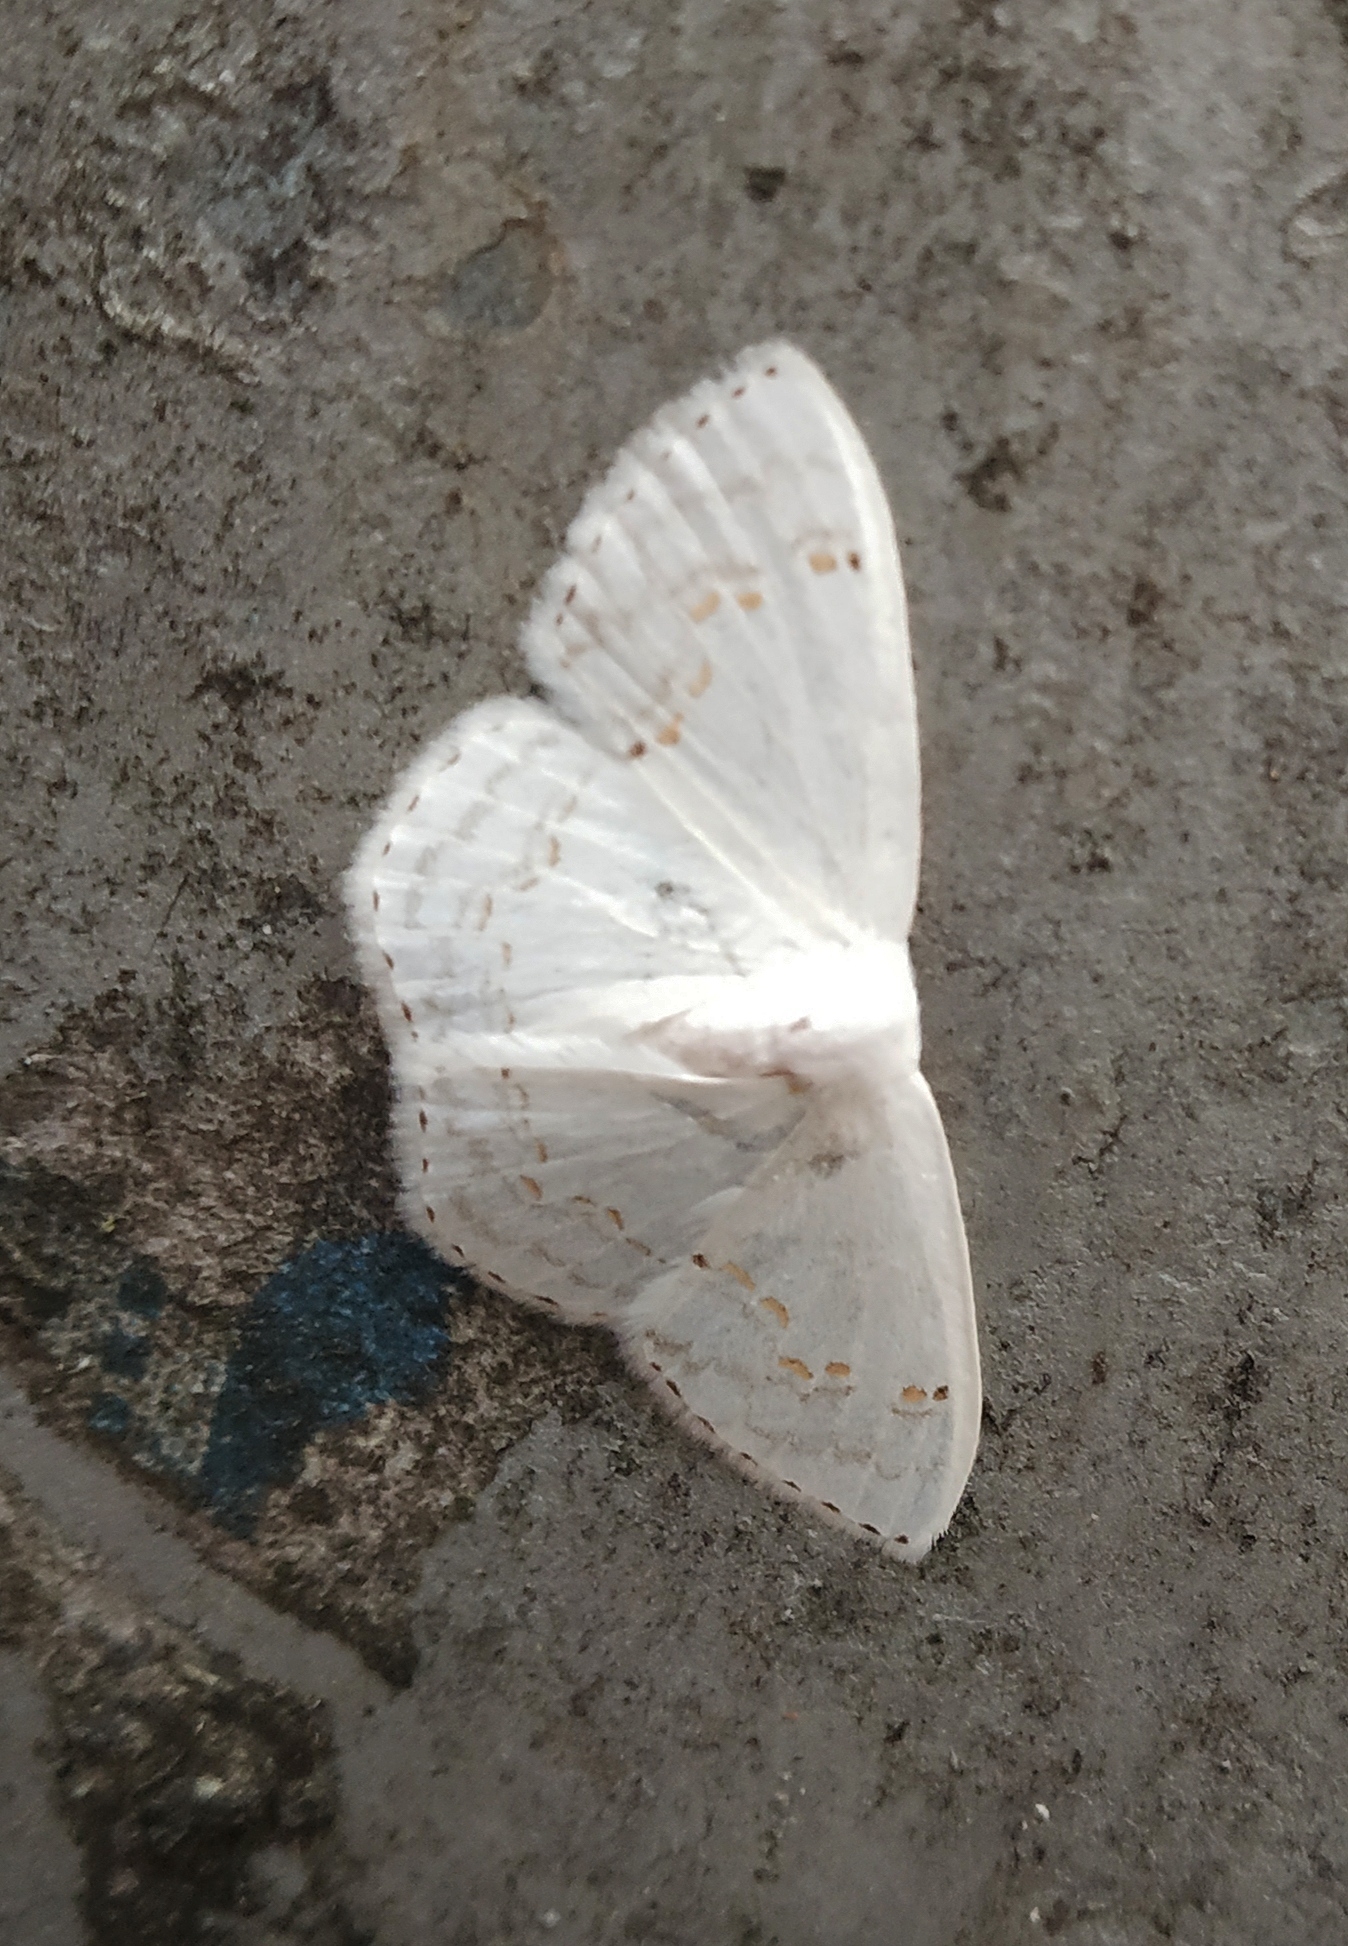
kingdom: Animalia
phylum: Arthropoda
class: Insecta
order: Lepidoptera
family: Drepanidae
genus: Teldenia
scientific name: Teldenia specca
